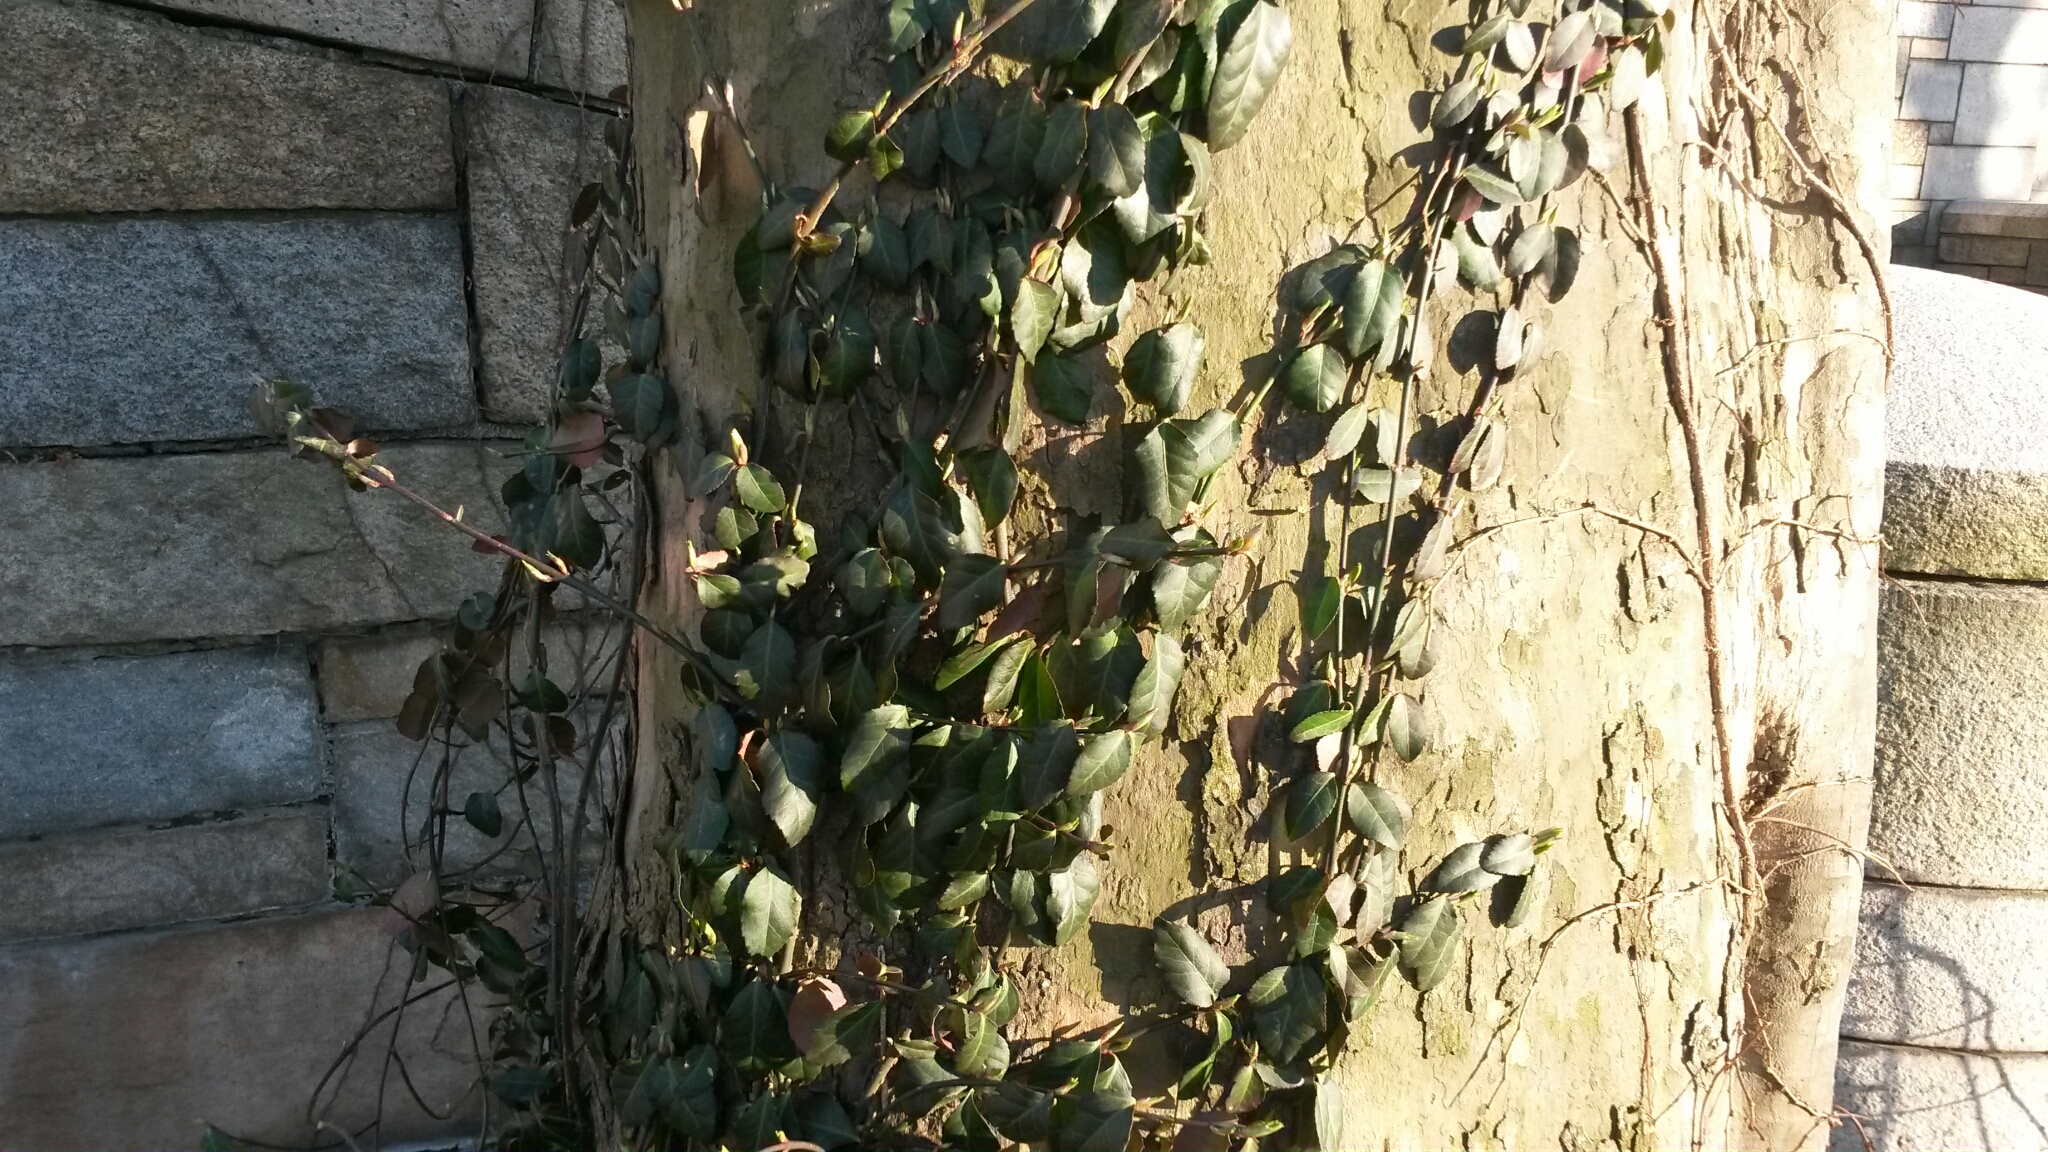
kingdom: Plantae
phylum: Tracheophyta
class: Magnoliopsida
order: Celastrales
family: Celastraceae
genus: Euonymus
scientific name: Euonymus fortunei
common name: Climbing euonymus
